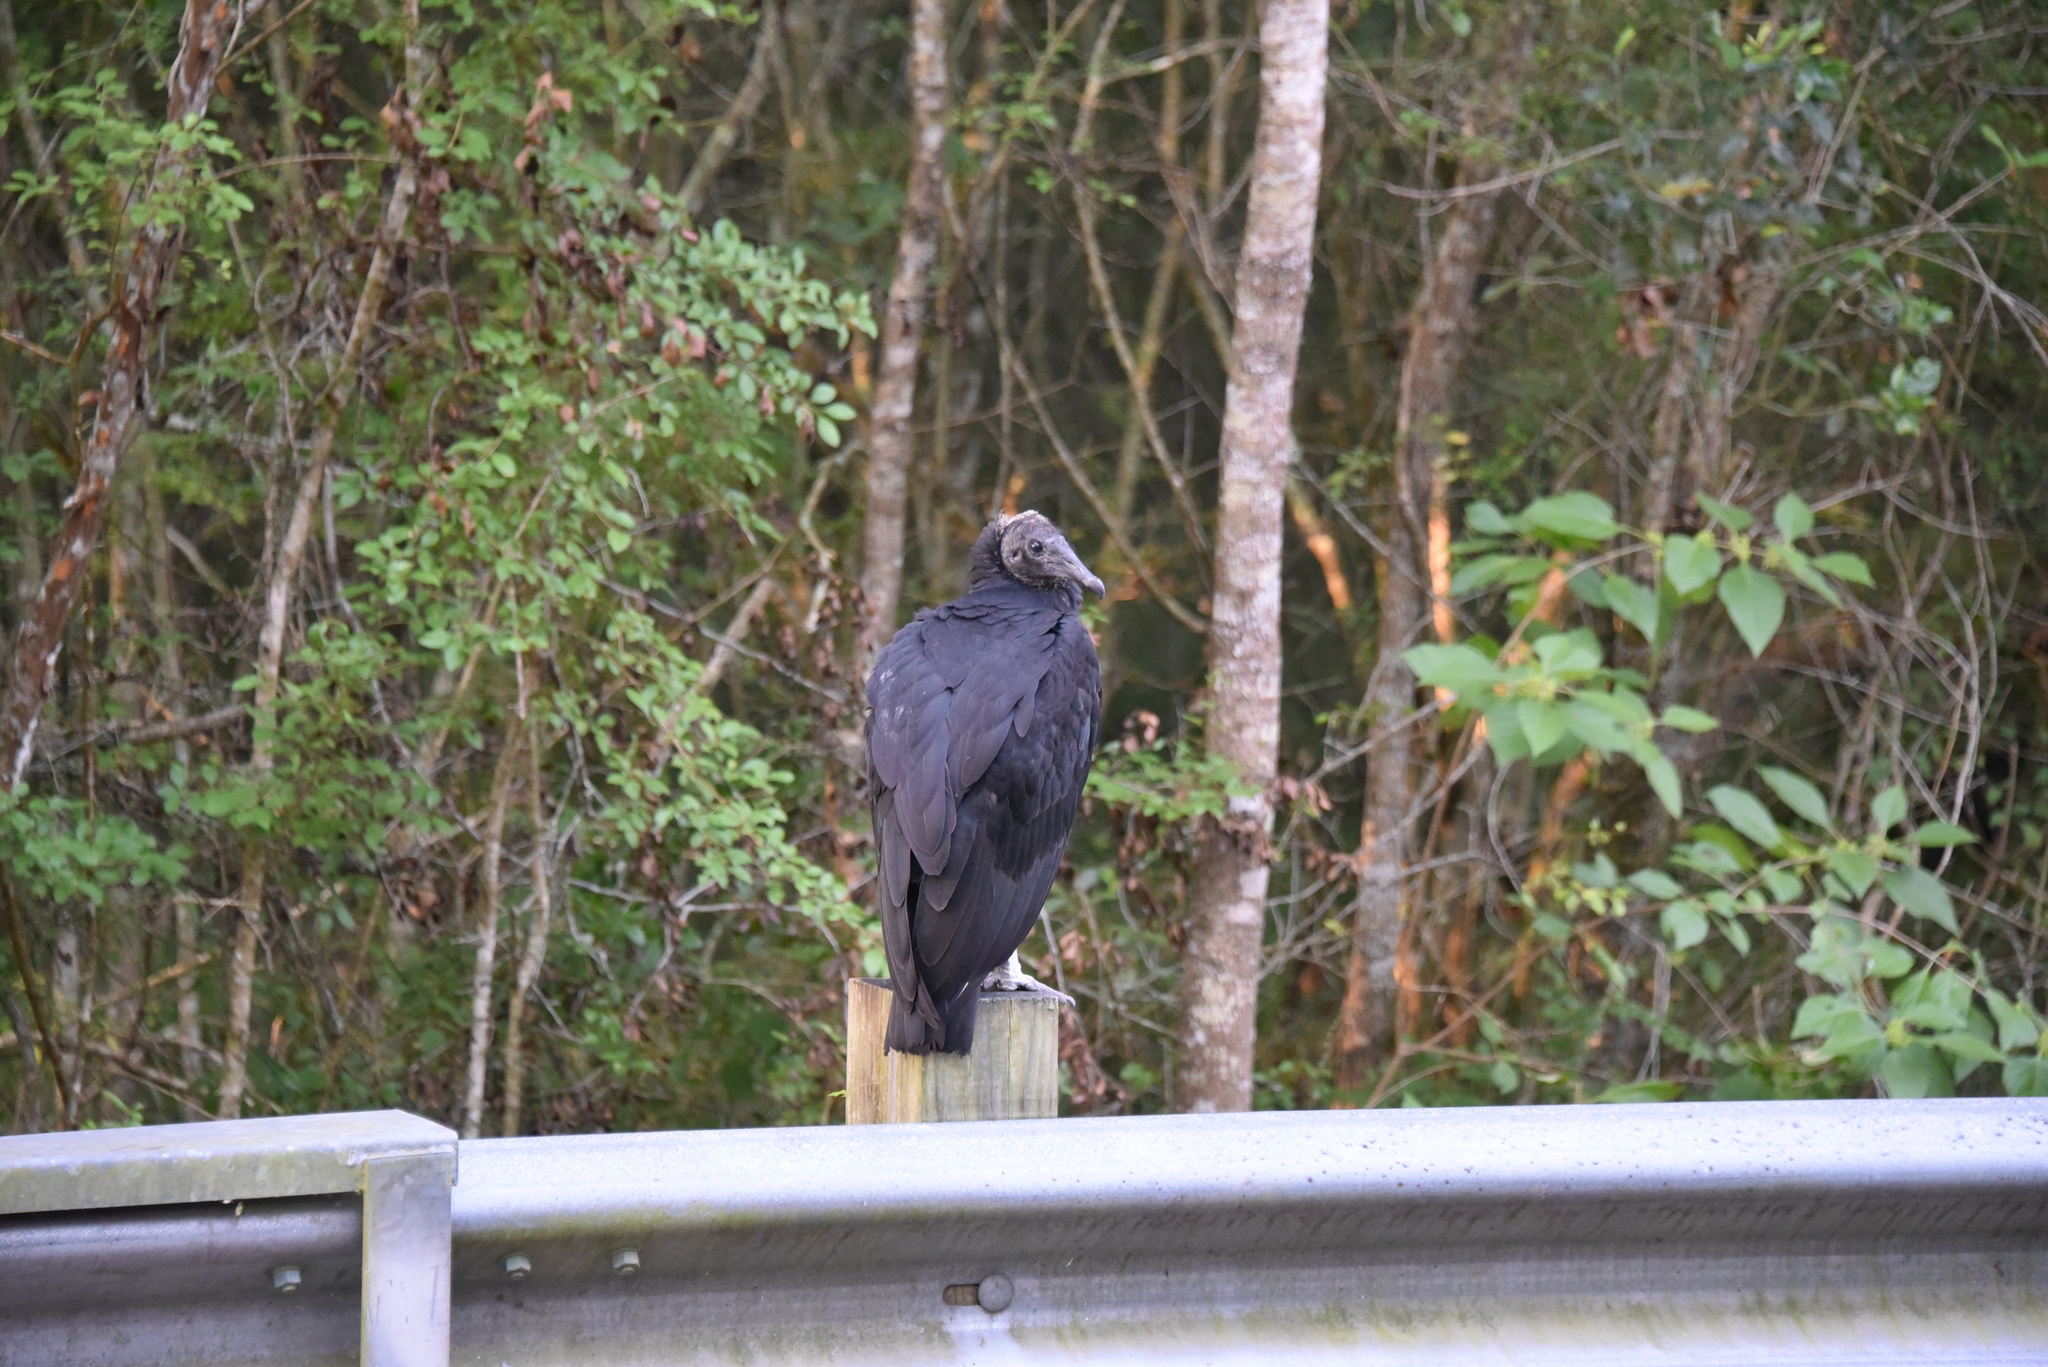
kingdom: Animalia
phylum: Chordata
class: Aves
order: Accipitriformes
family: Cathartidae
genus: Coragyps
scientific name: Coragyps atratus
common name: Black vulture
